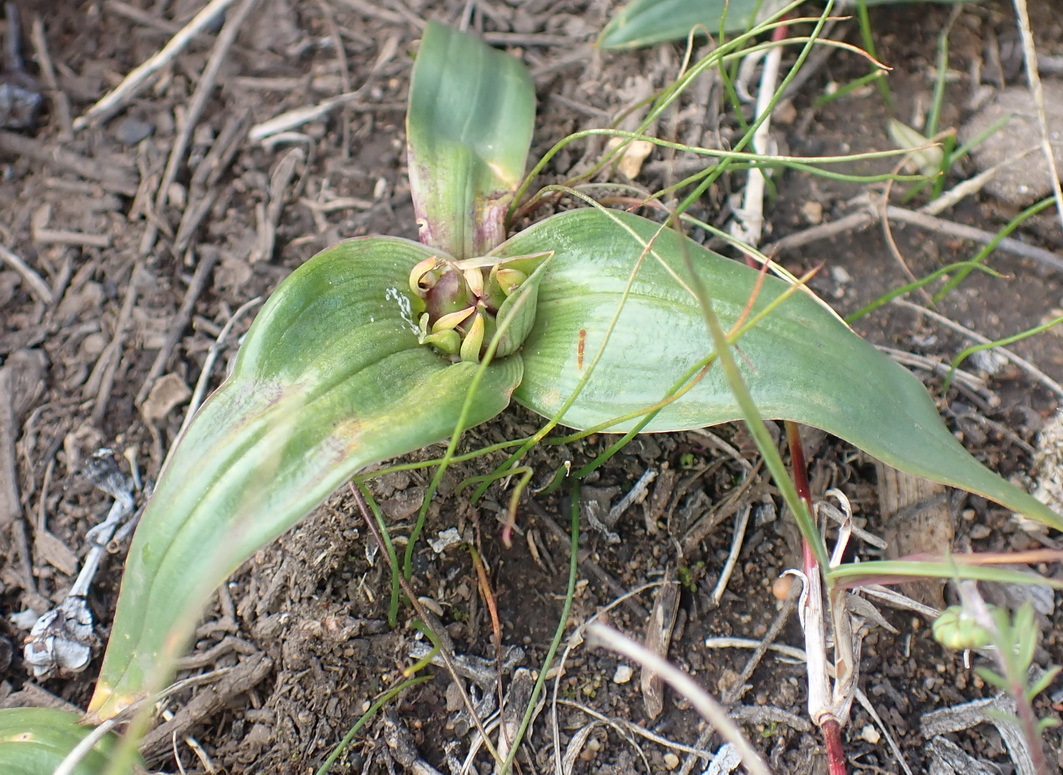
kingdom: Plantae
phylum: Tracheophyta
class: Liliopsida
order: Liliales
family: Colchicaceae
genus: Colchicum
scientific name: Colchicum cuspidatum
